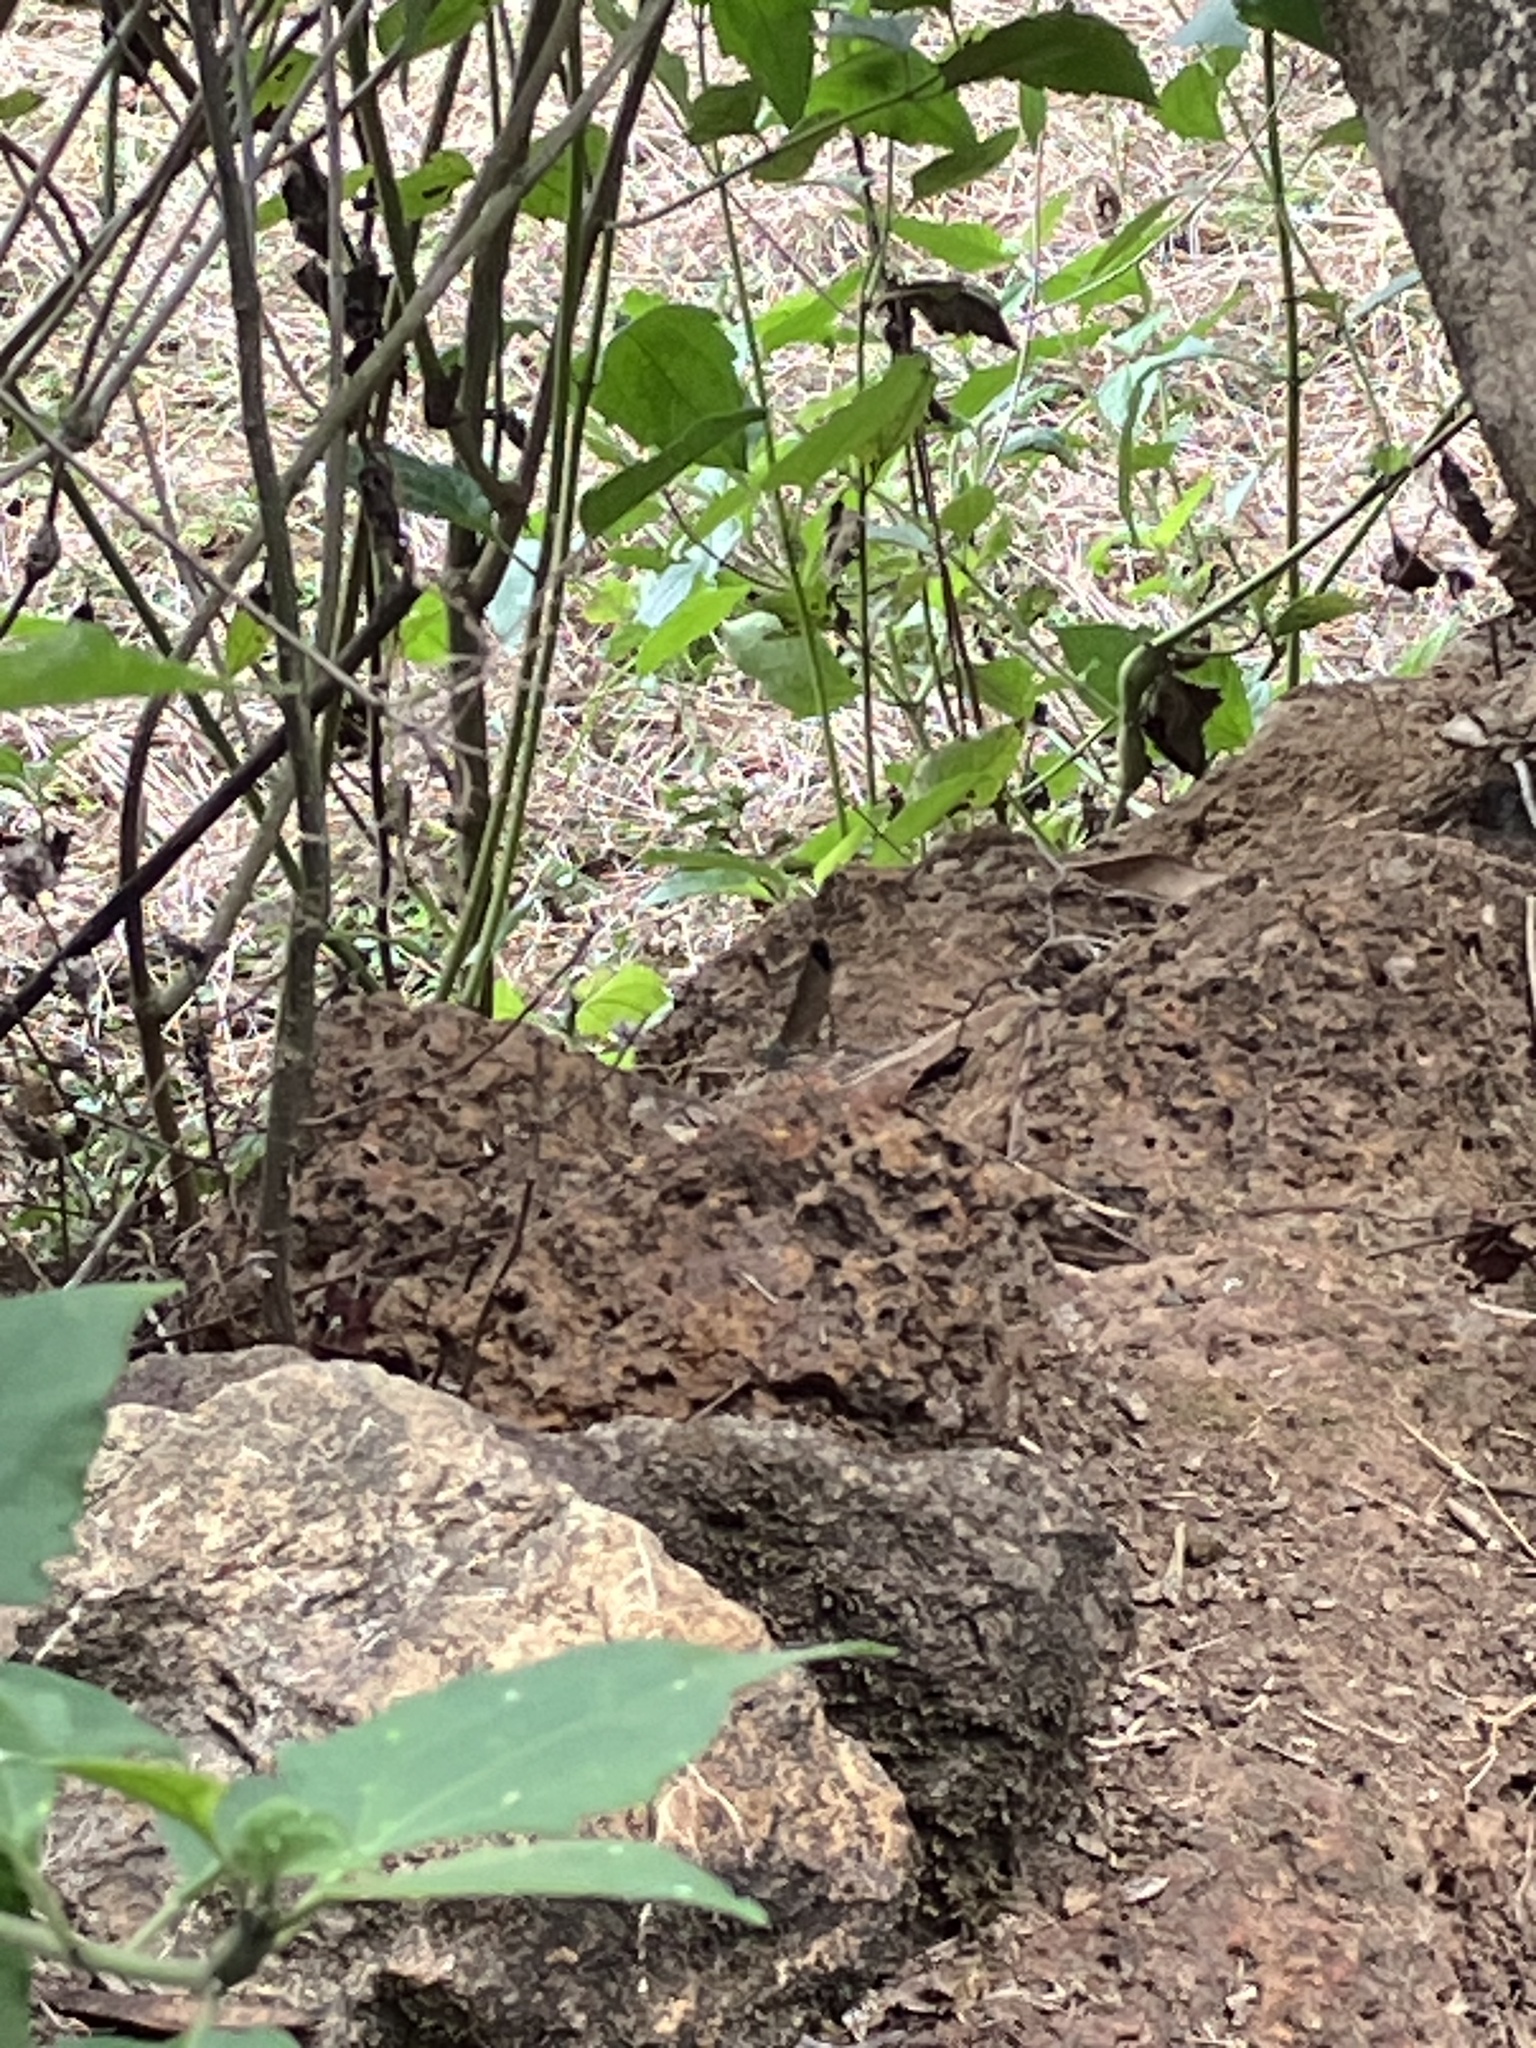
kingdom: Animalia
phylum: Arthropoda
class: Insecta
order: Odonata
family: Calopterygidae
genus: Vestalis
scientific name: Vestalis apicalis
